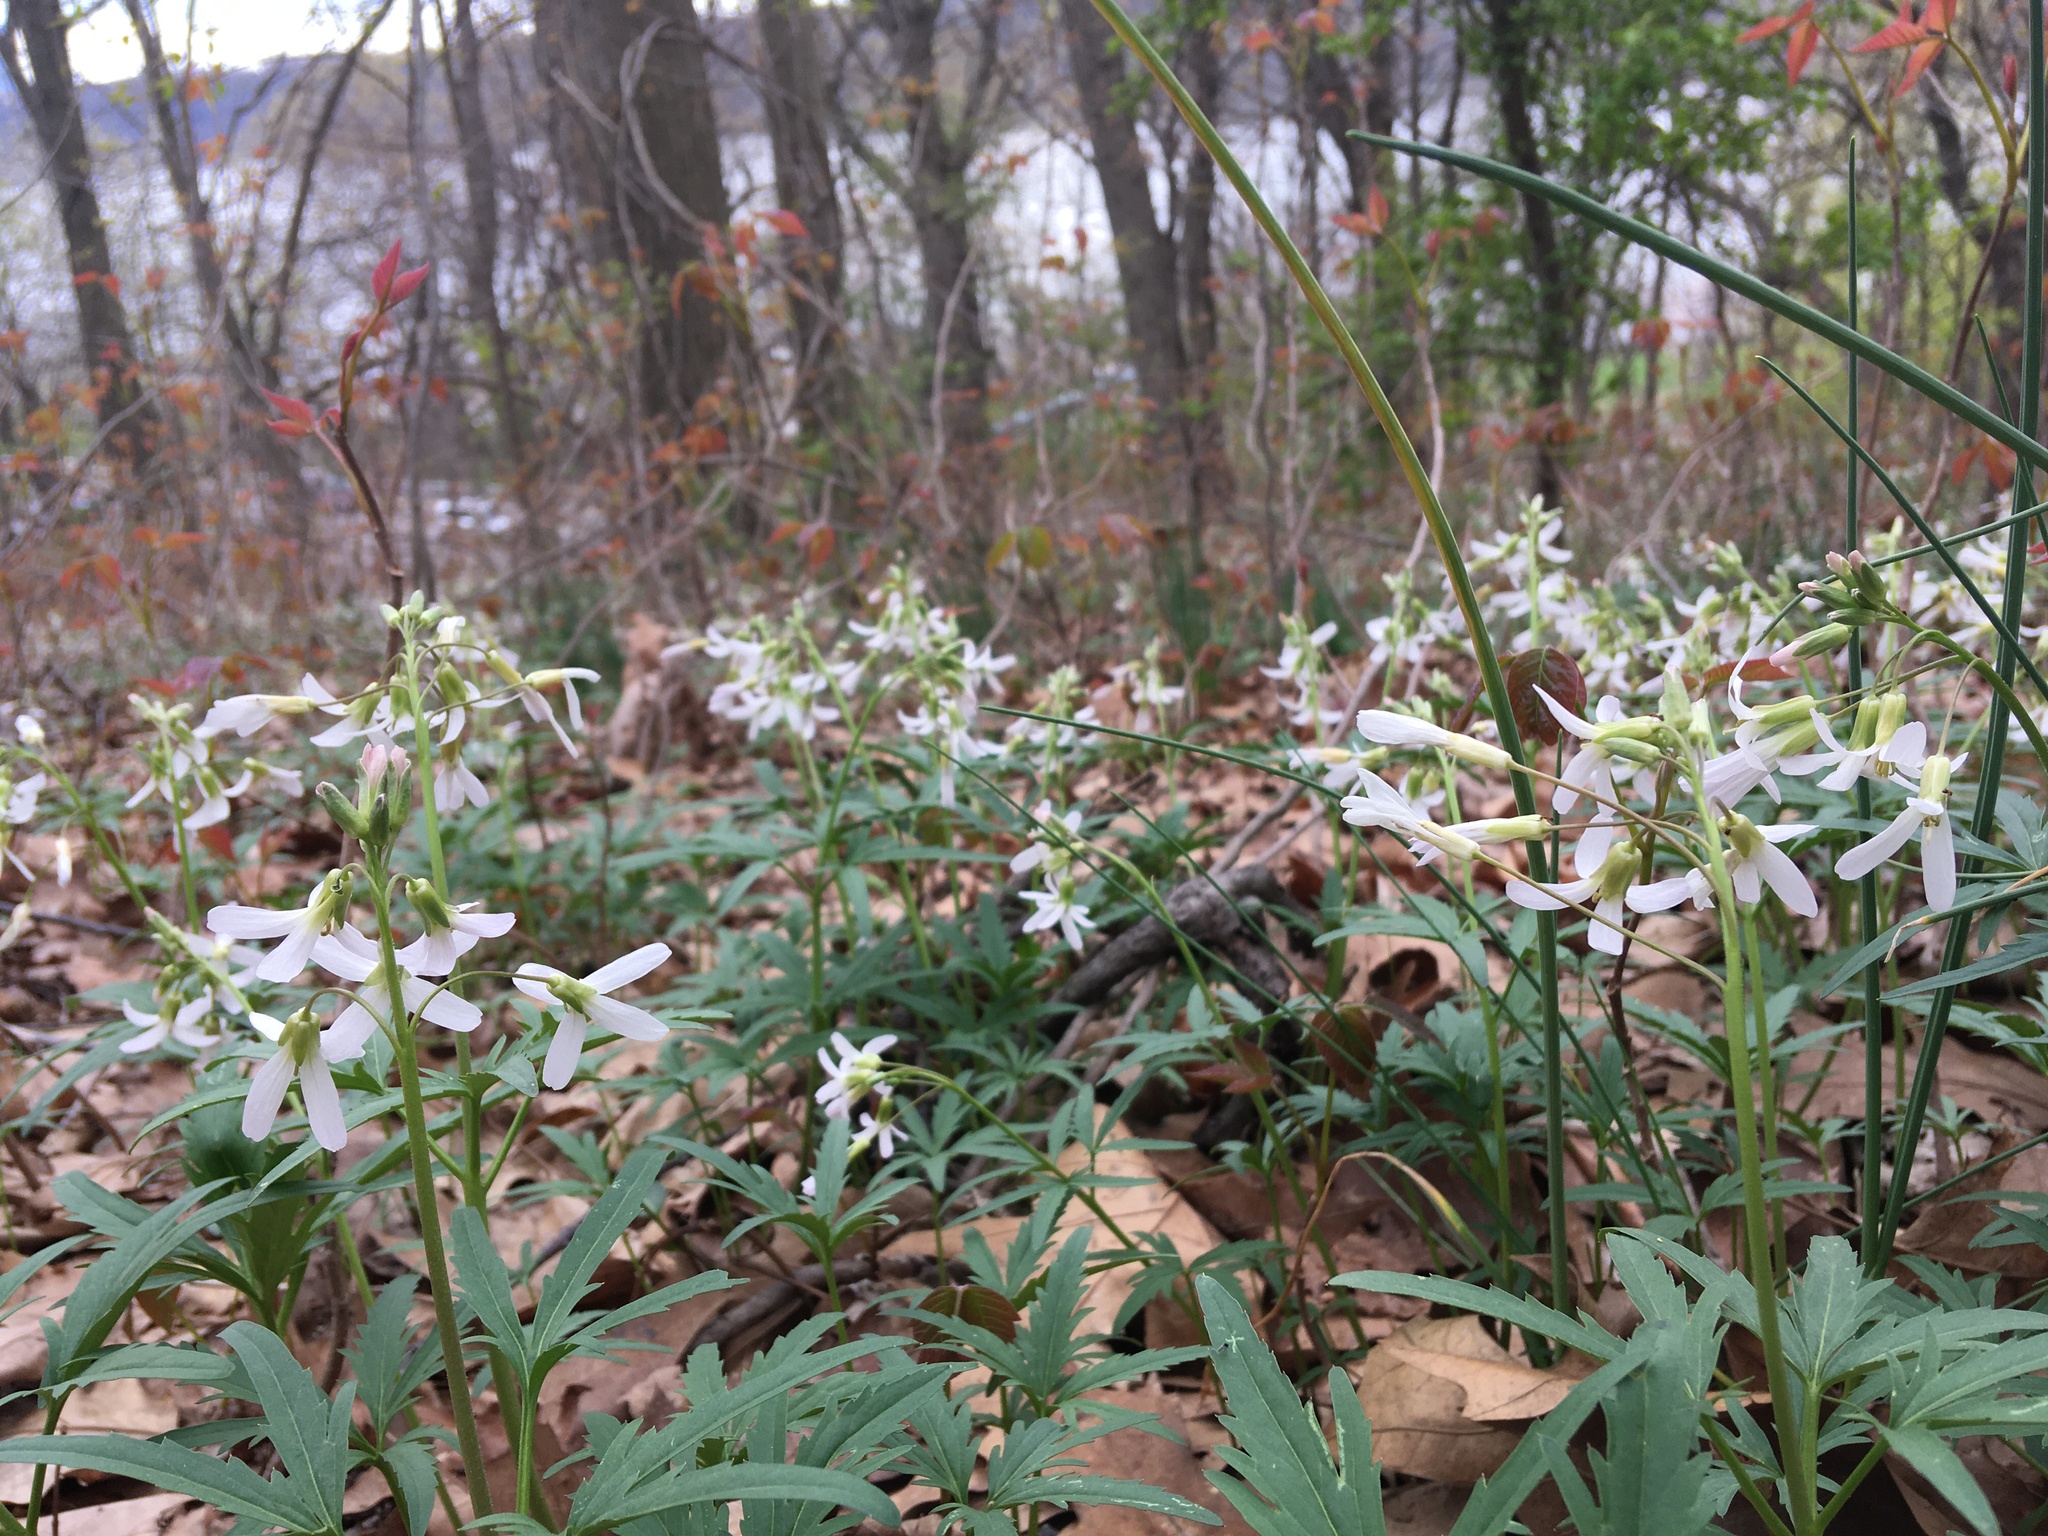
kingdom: Plantae
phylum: Tracheophyta
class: Magnoliopsida
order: Brassicales
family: Brassicaceae
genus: Cardamine
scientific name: Cardamine concatenata
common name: Cut-leaf toothcup
